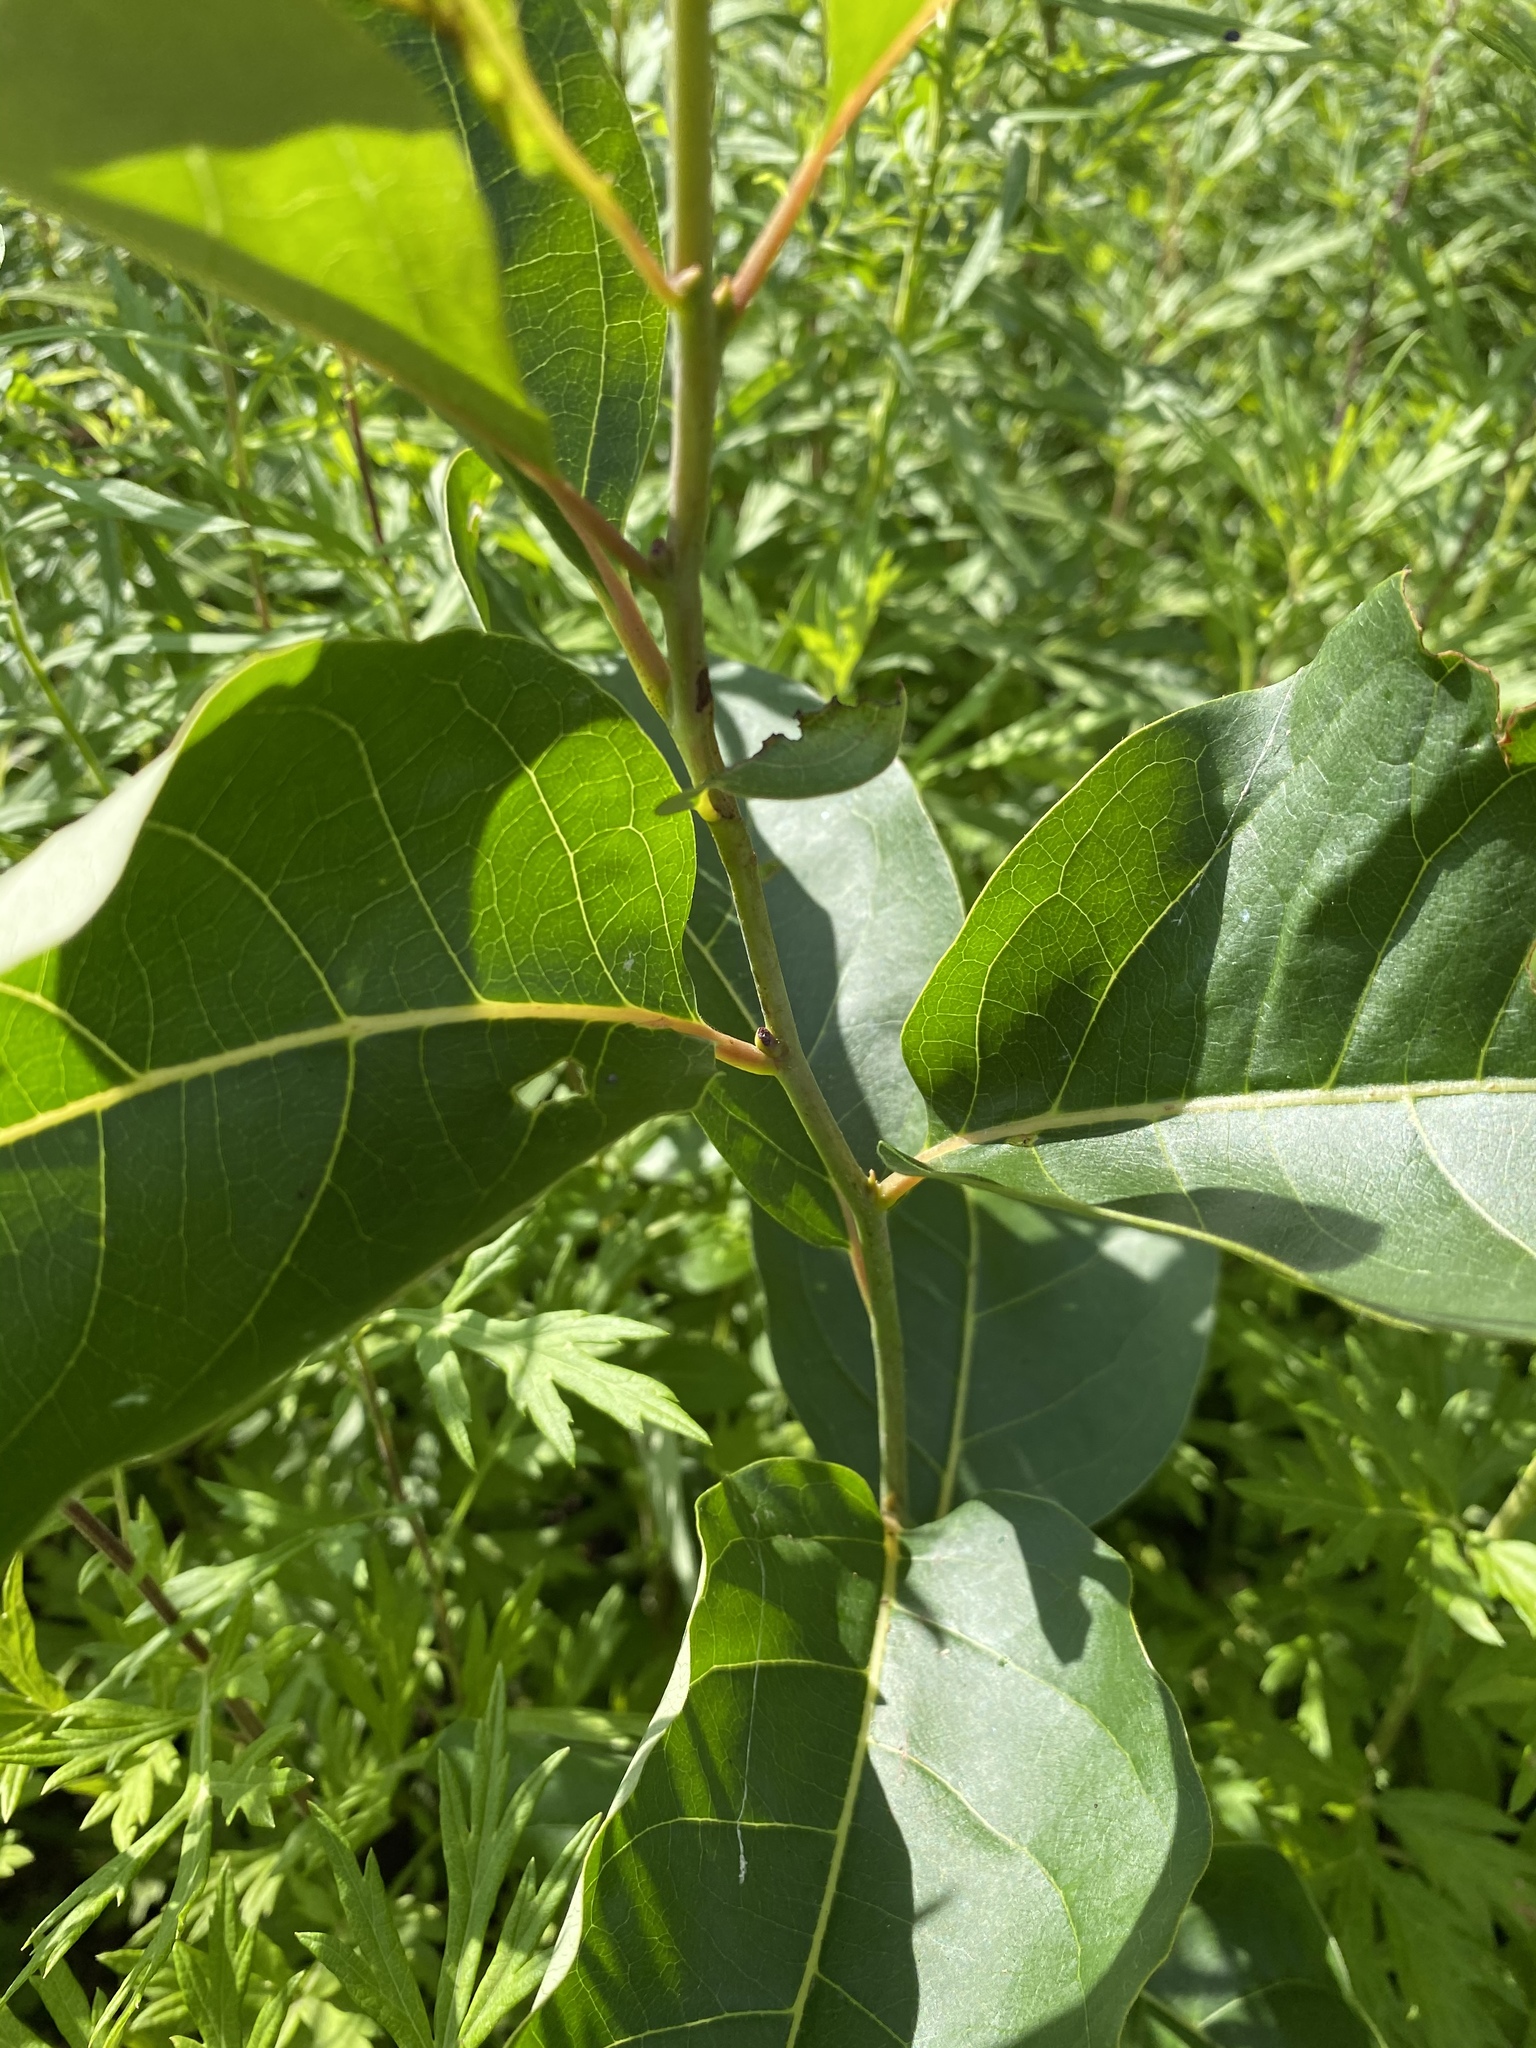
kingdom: Plantae
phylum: Tracheophyta
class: Magnoliopsida
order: Ericales
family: Ebenaceae
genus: Diospyros
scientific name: Diospyros virginiana
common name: Persimmon
